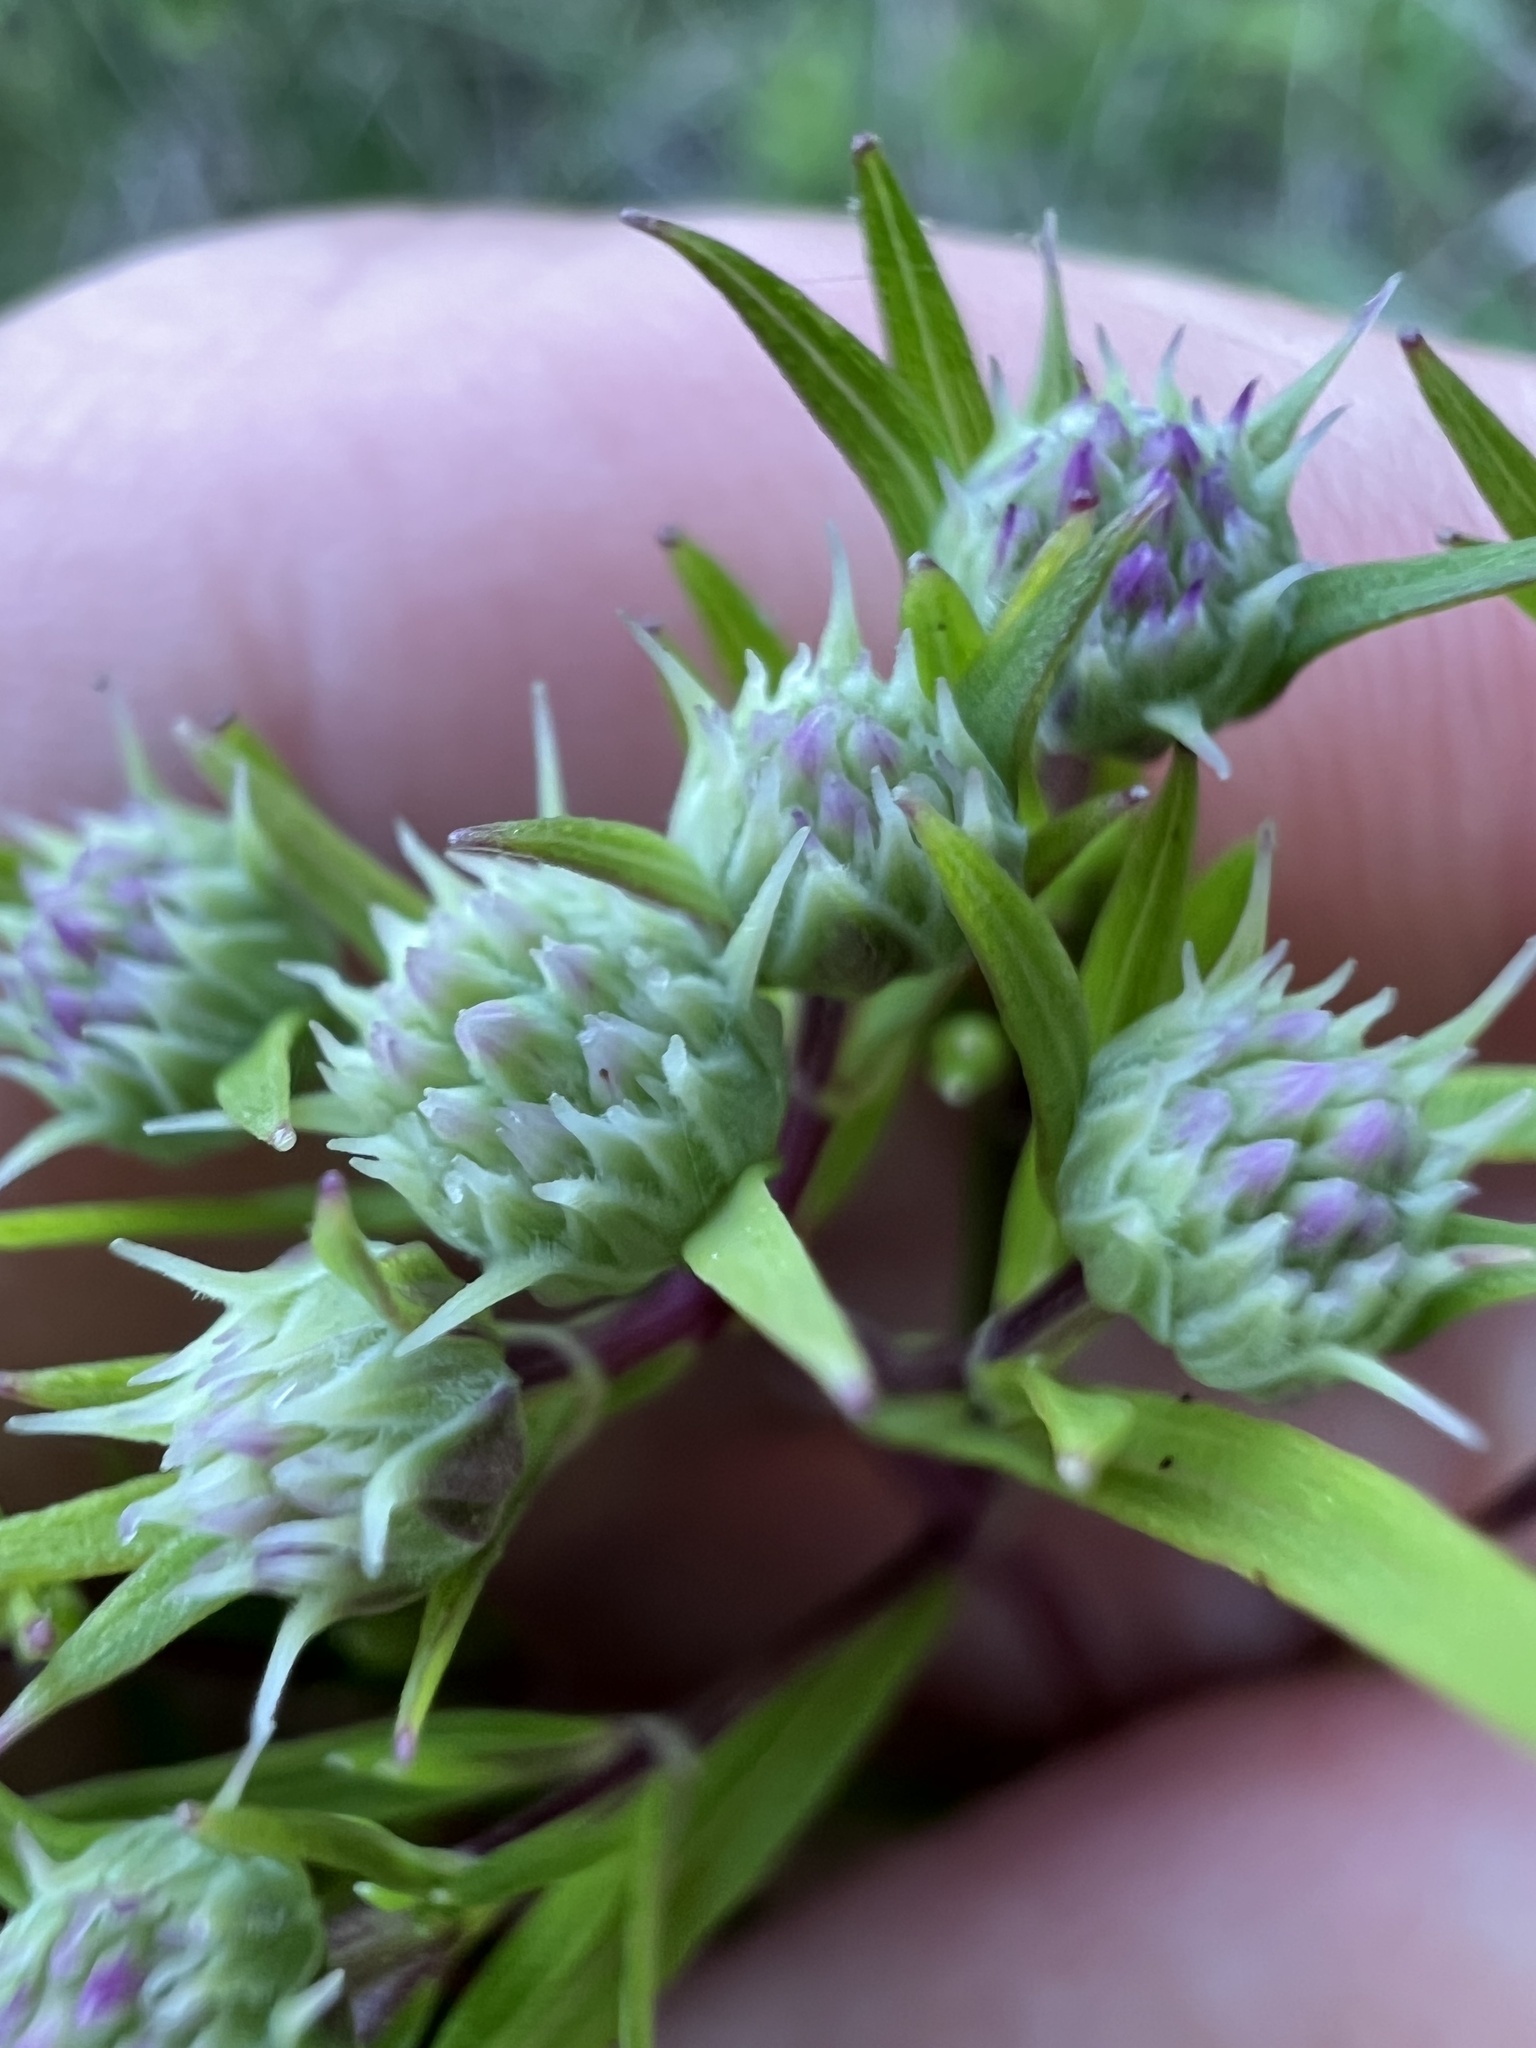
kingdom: Plantae
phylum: Tracheophyta
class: Magnoliopsida
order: Lamiales
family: Lamiaceae
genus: Pycnanthemum
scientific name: Pycnanthemum tenuifolium
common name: Narrow-leaf mountain-mint
